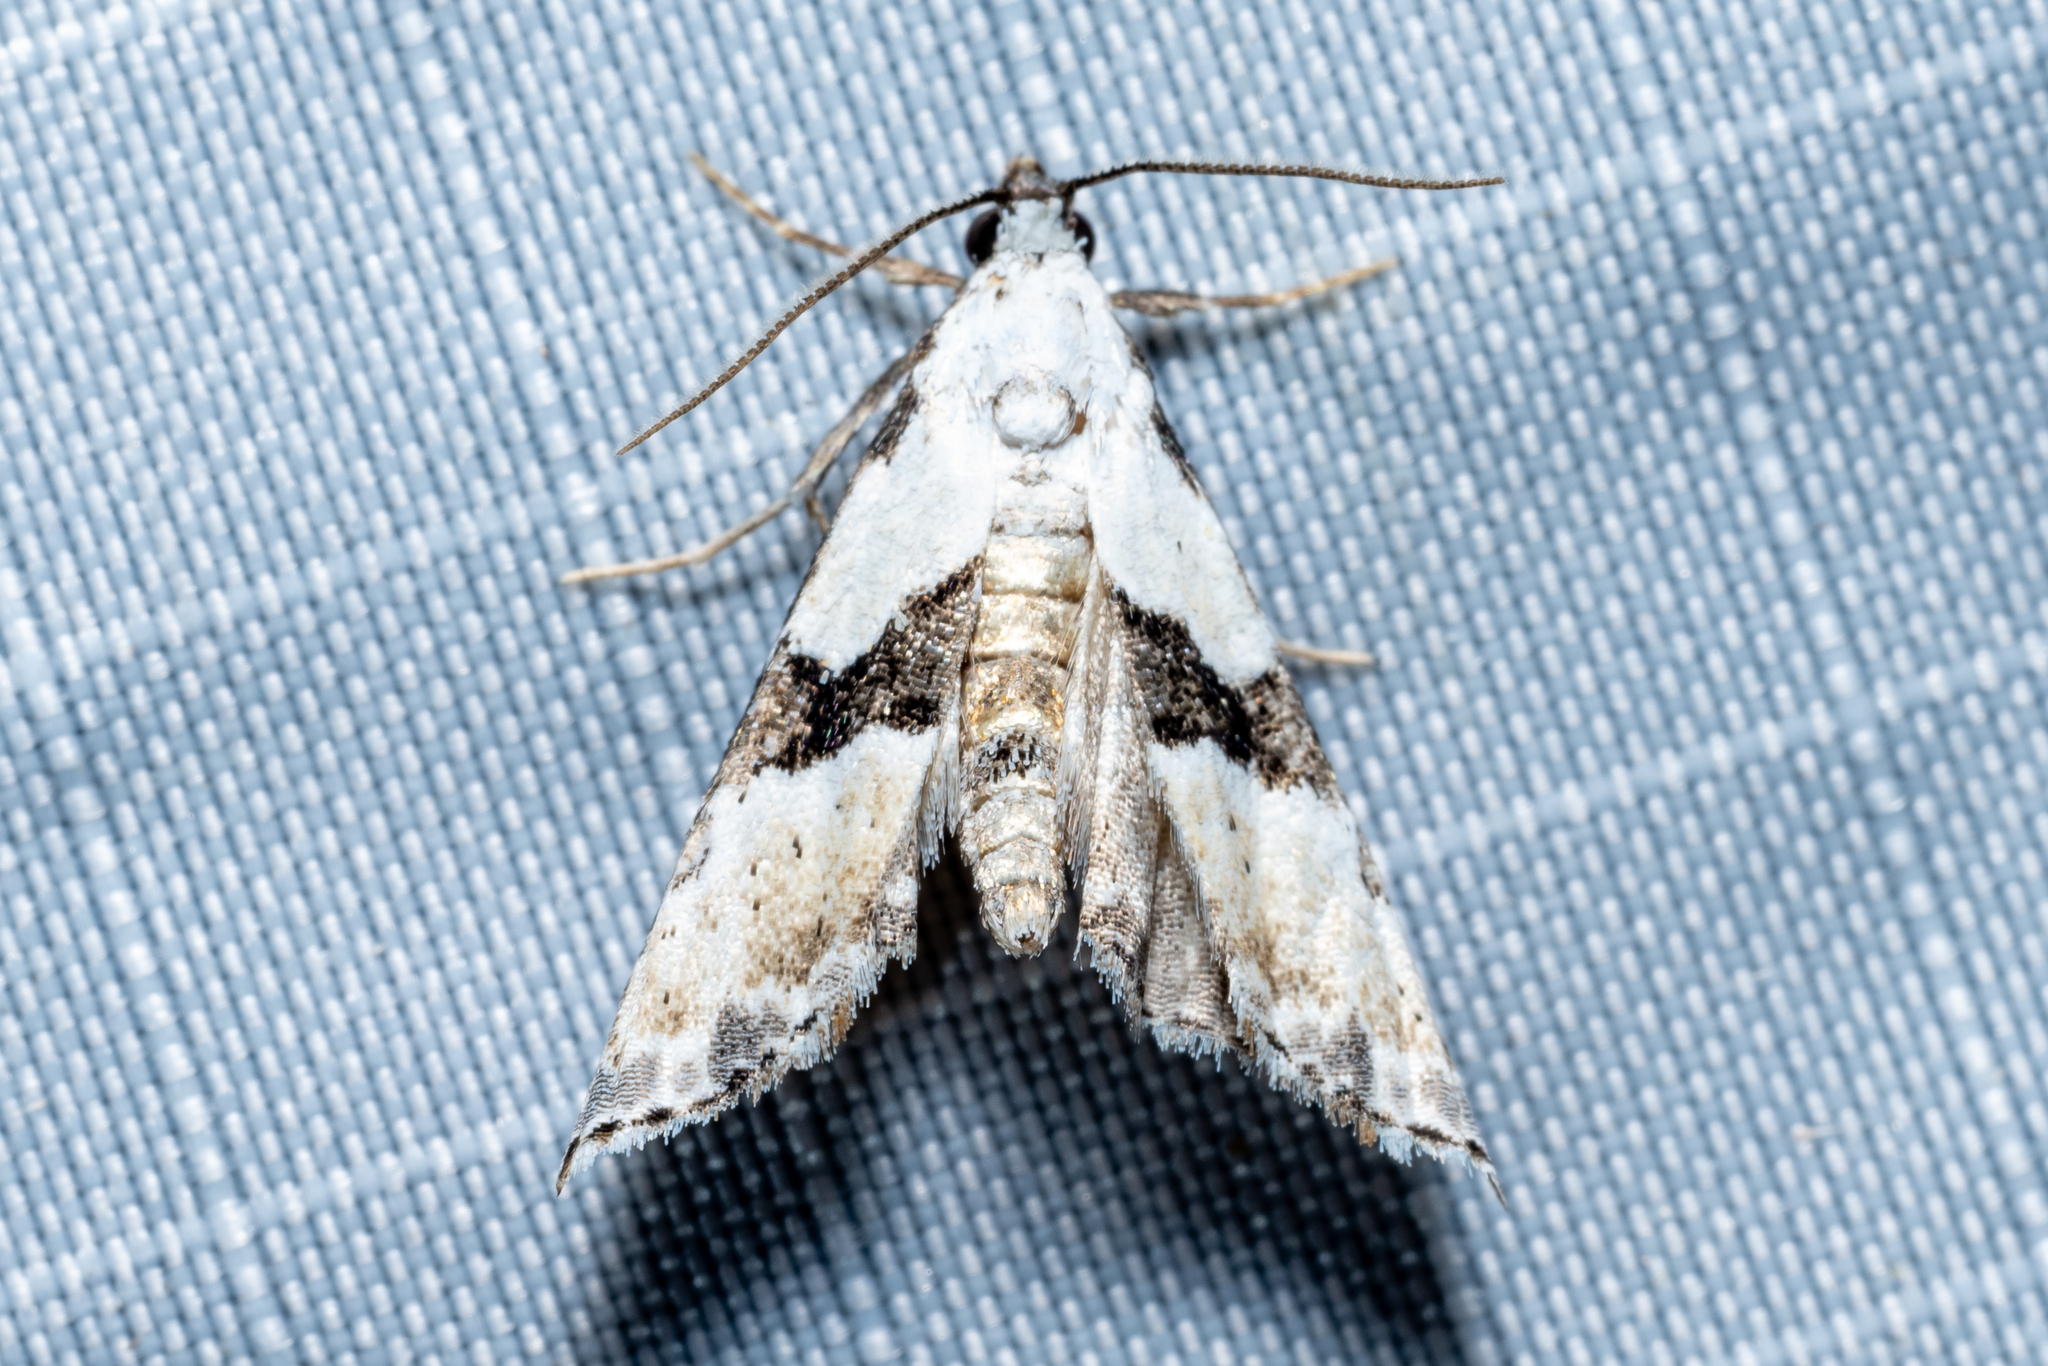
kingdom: Animalia
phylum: Arthropoda
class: Insecta
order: Lepidoptera
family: Noctuidae
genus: Nigetia
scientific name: Nigetia formosalis
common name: Thin-winged owlet
